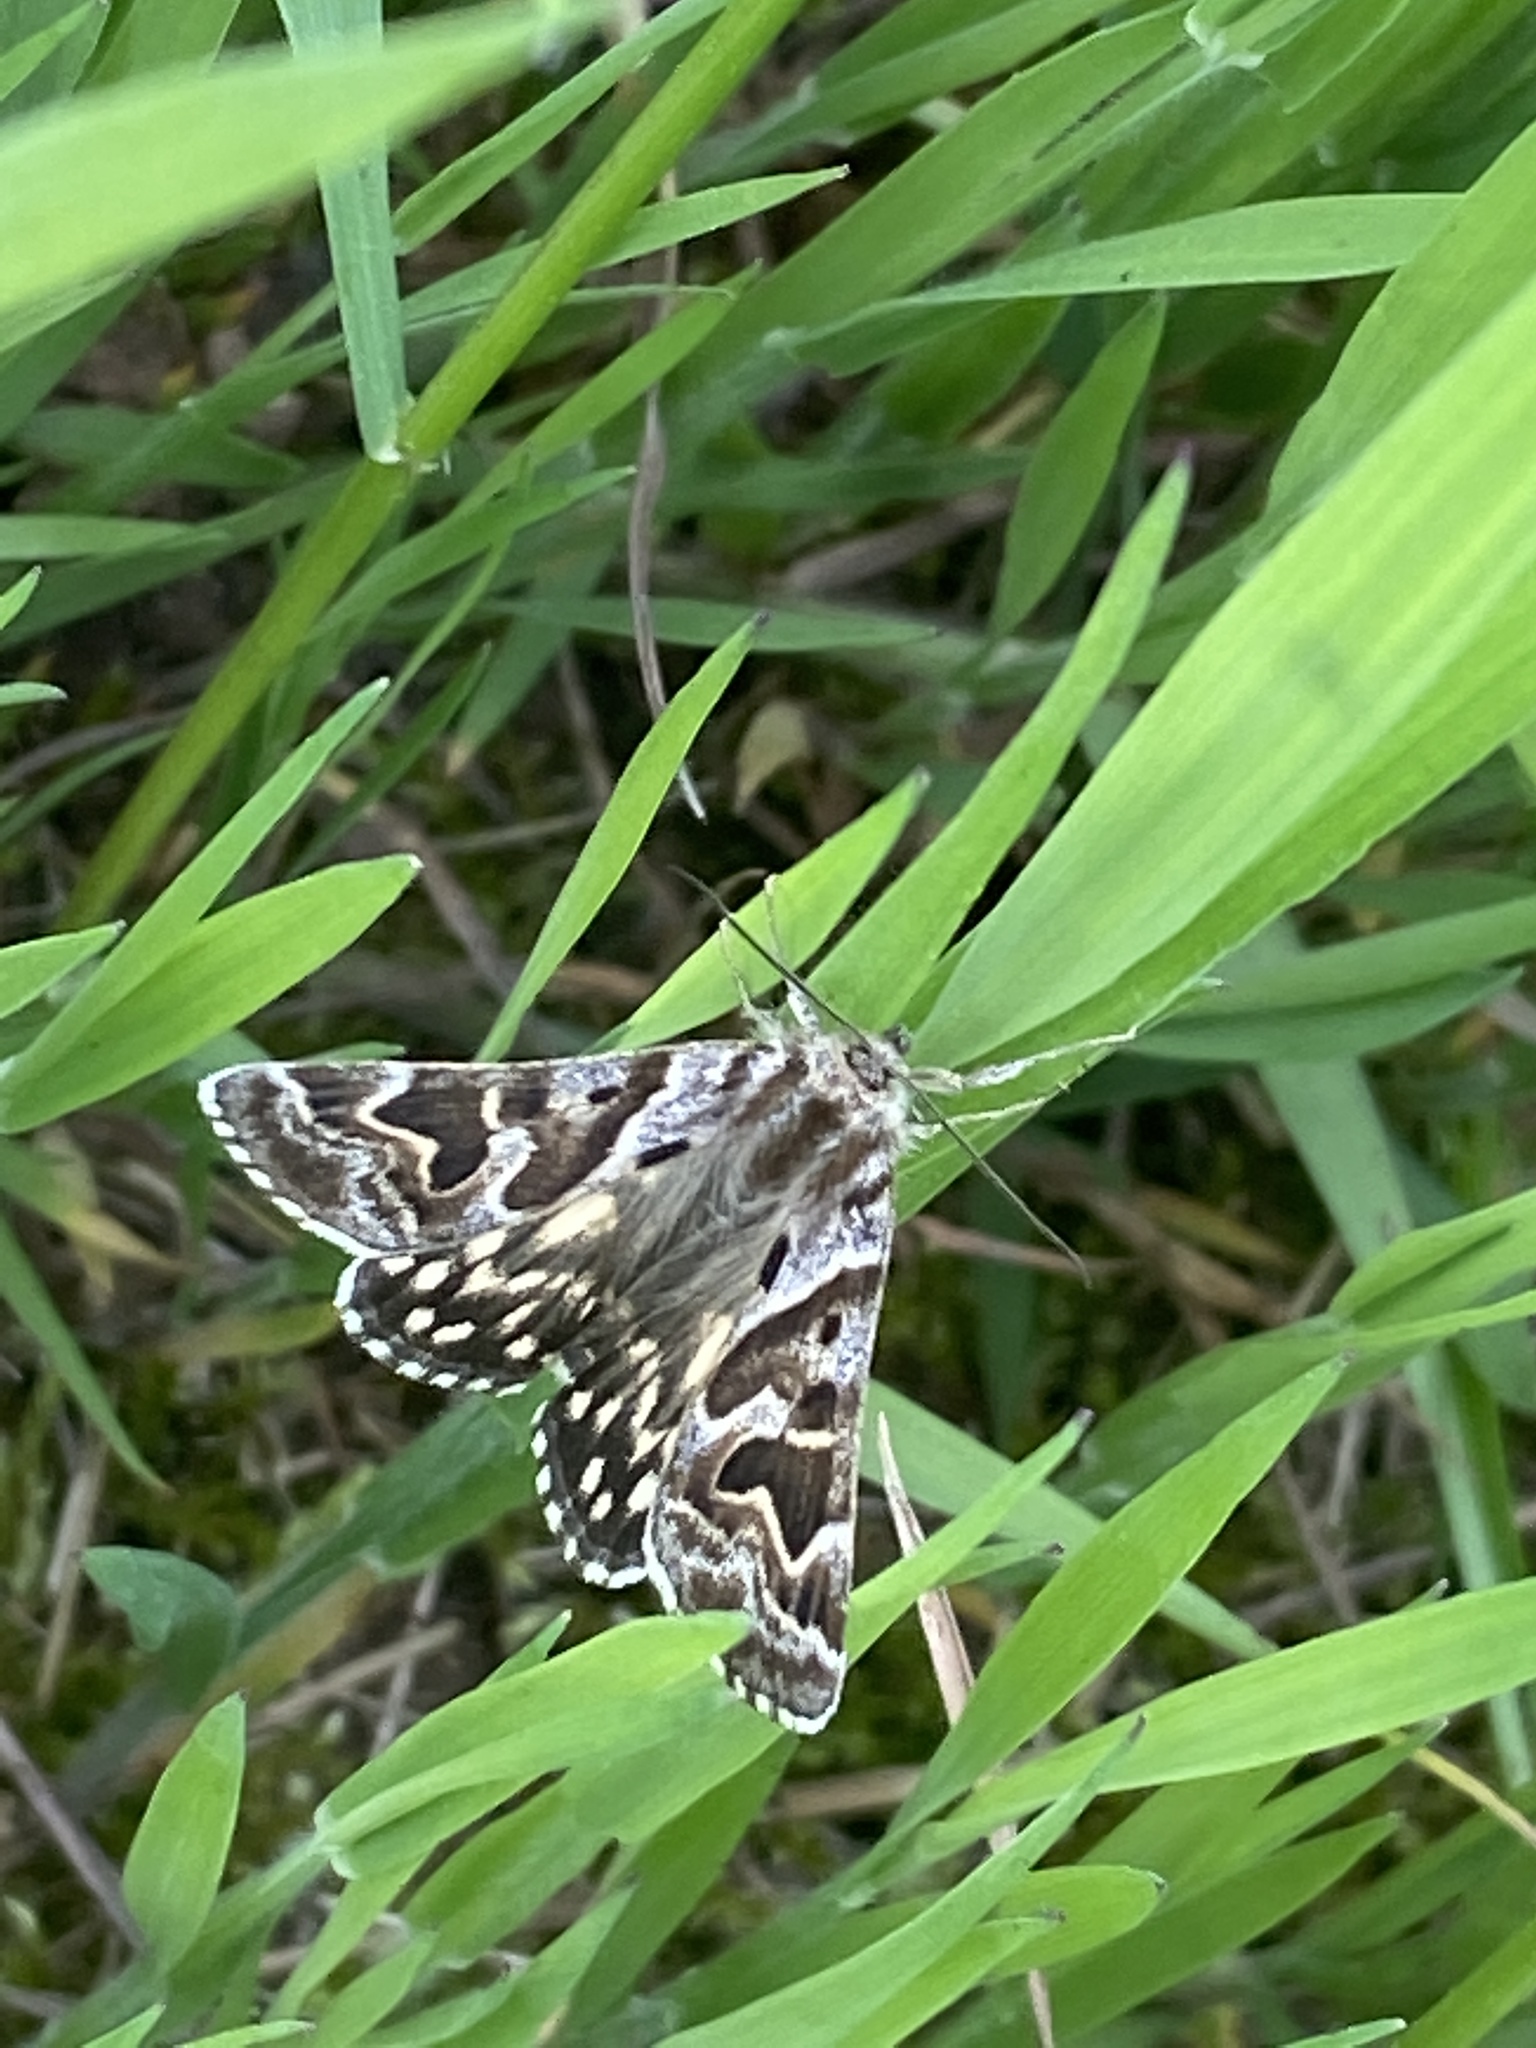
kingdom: Animalia
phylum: Arthropoda
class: Insecta
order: Lepidoptera
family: Erebidae
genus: Callistege
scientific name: Callistege mi
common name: Mother shipton
